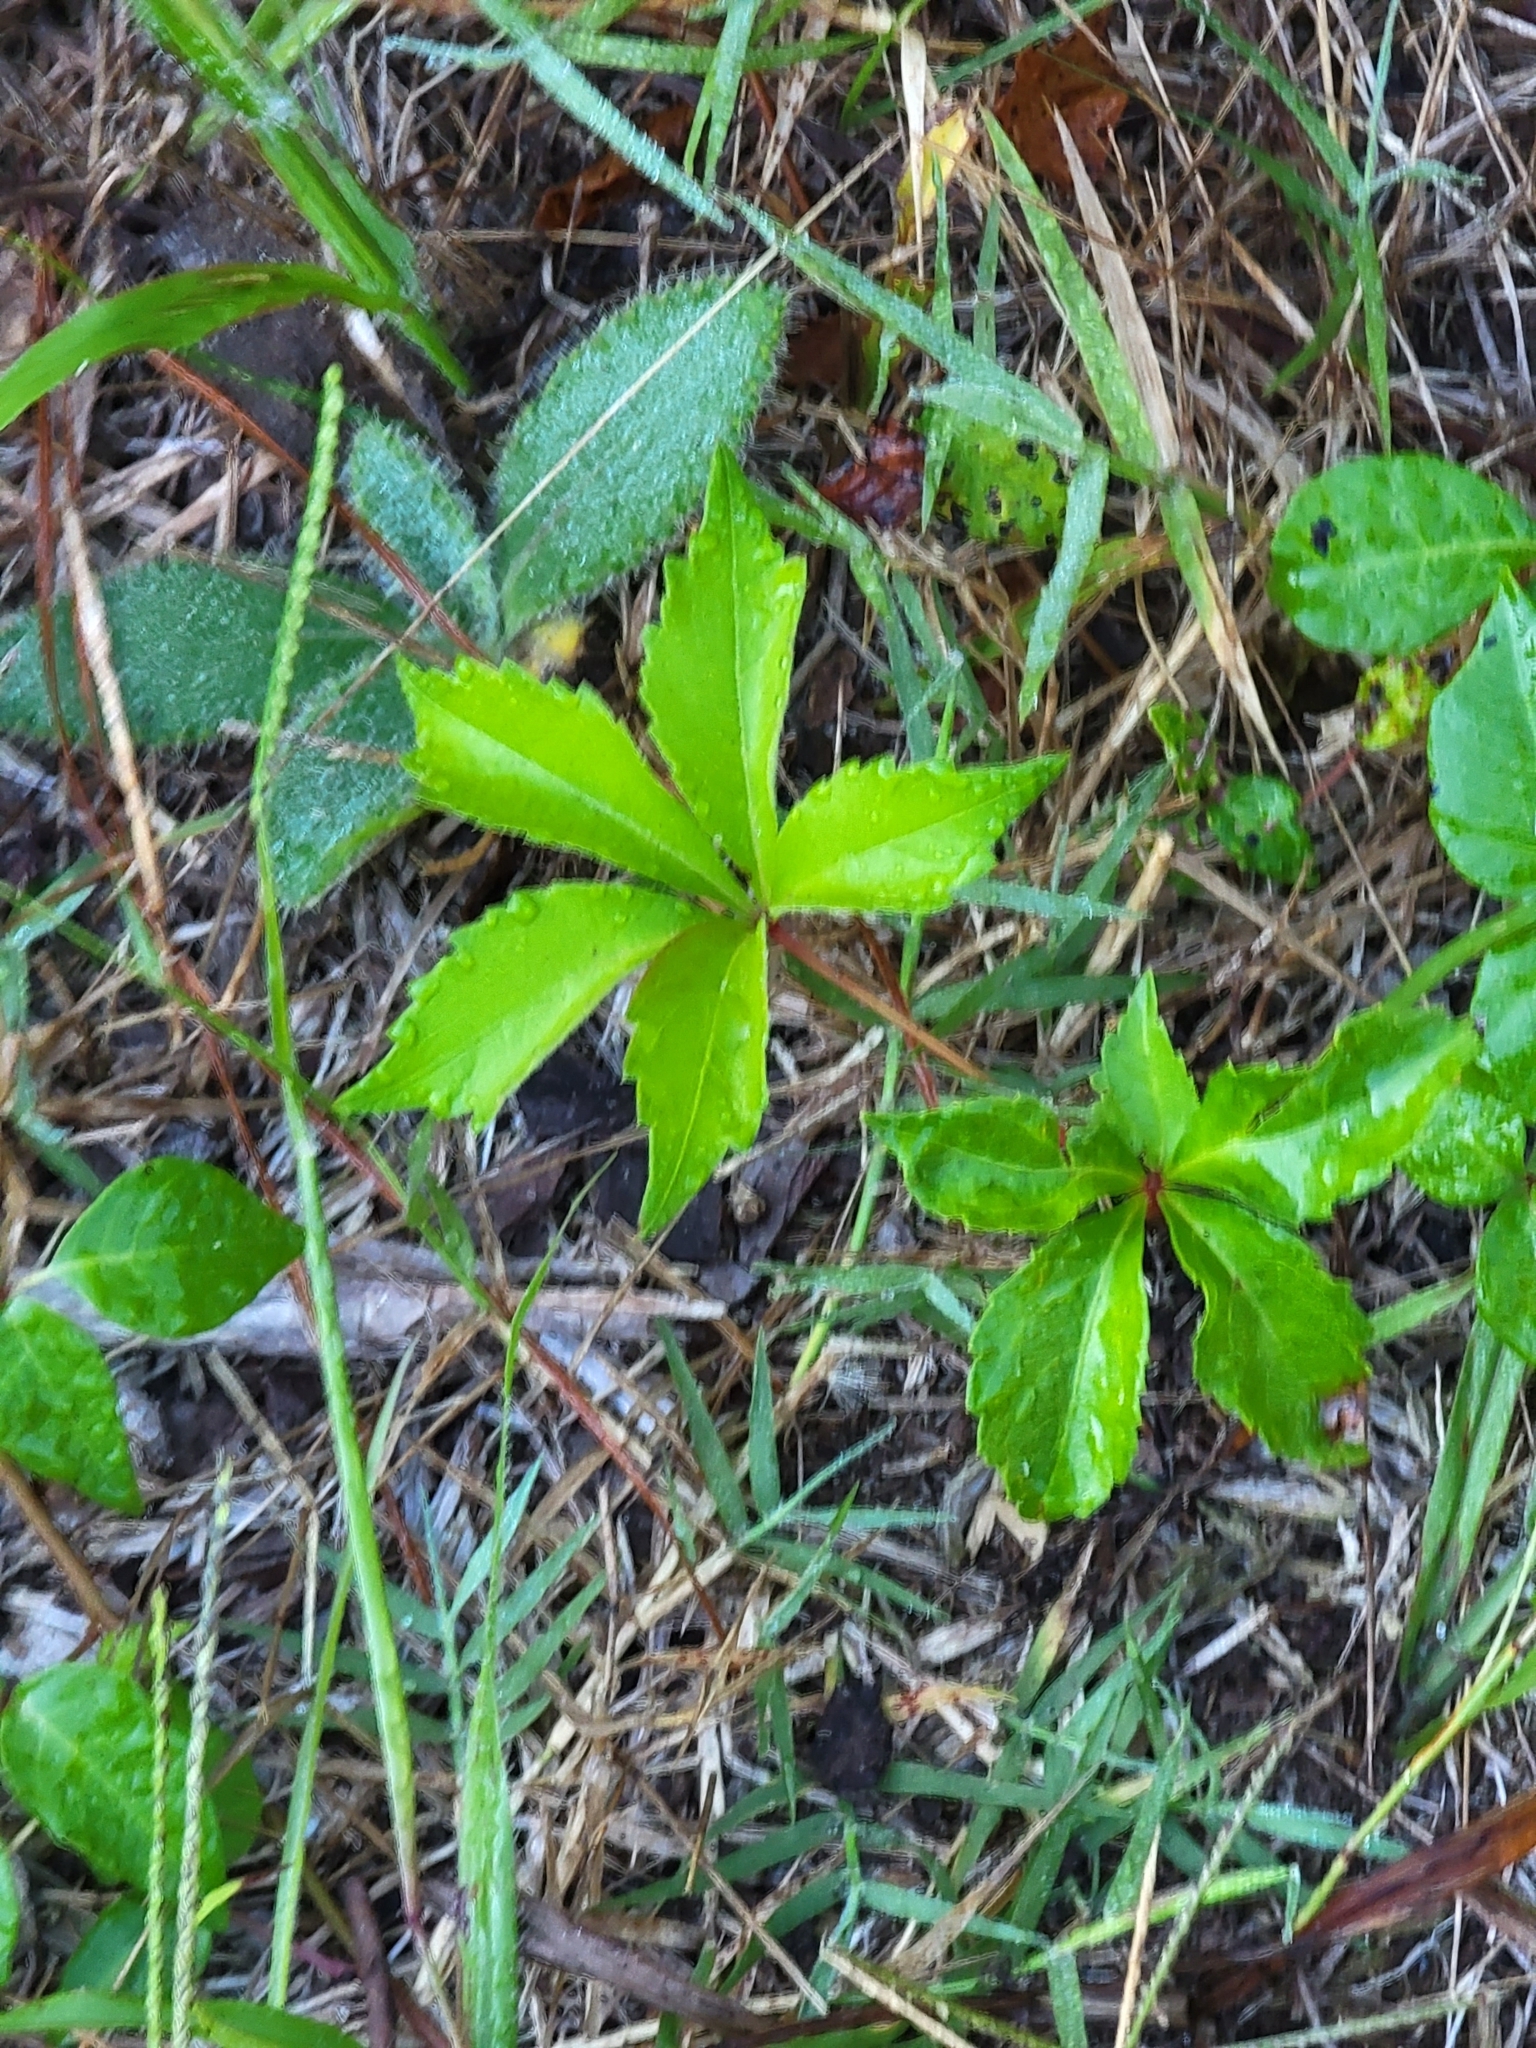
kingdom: Plantae
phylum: Tracheophyta
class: Magnoliopsida
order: Vitales
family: Vitaceae
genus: Parthenocissus
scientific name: Parthenocissus quinquefolia
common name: Virginia-creeper
